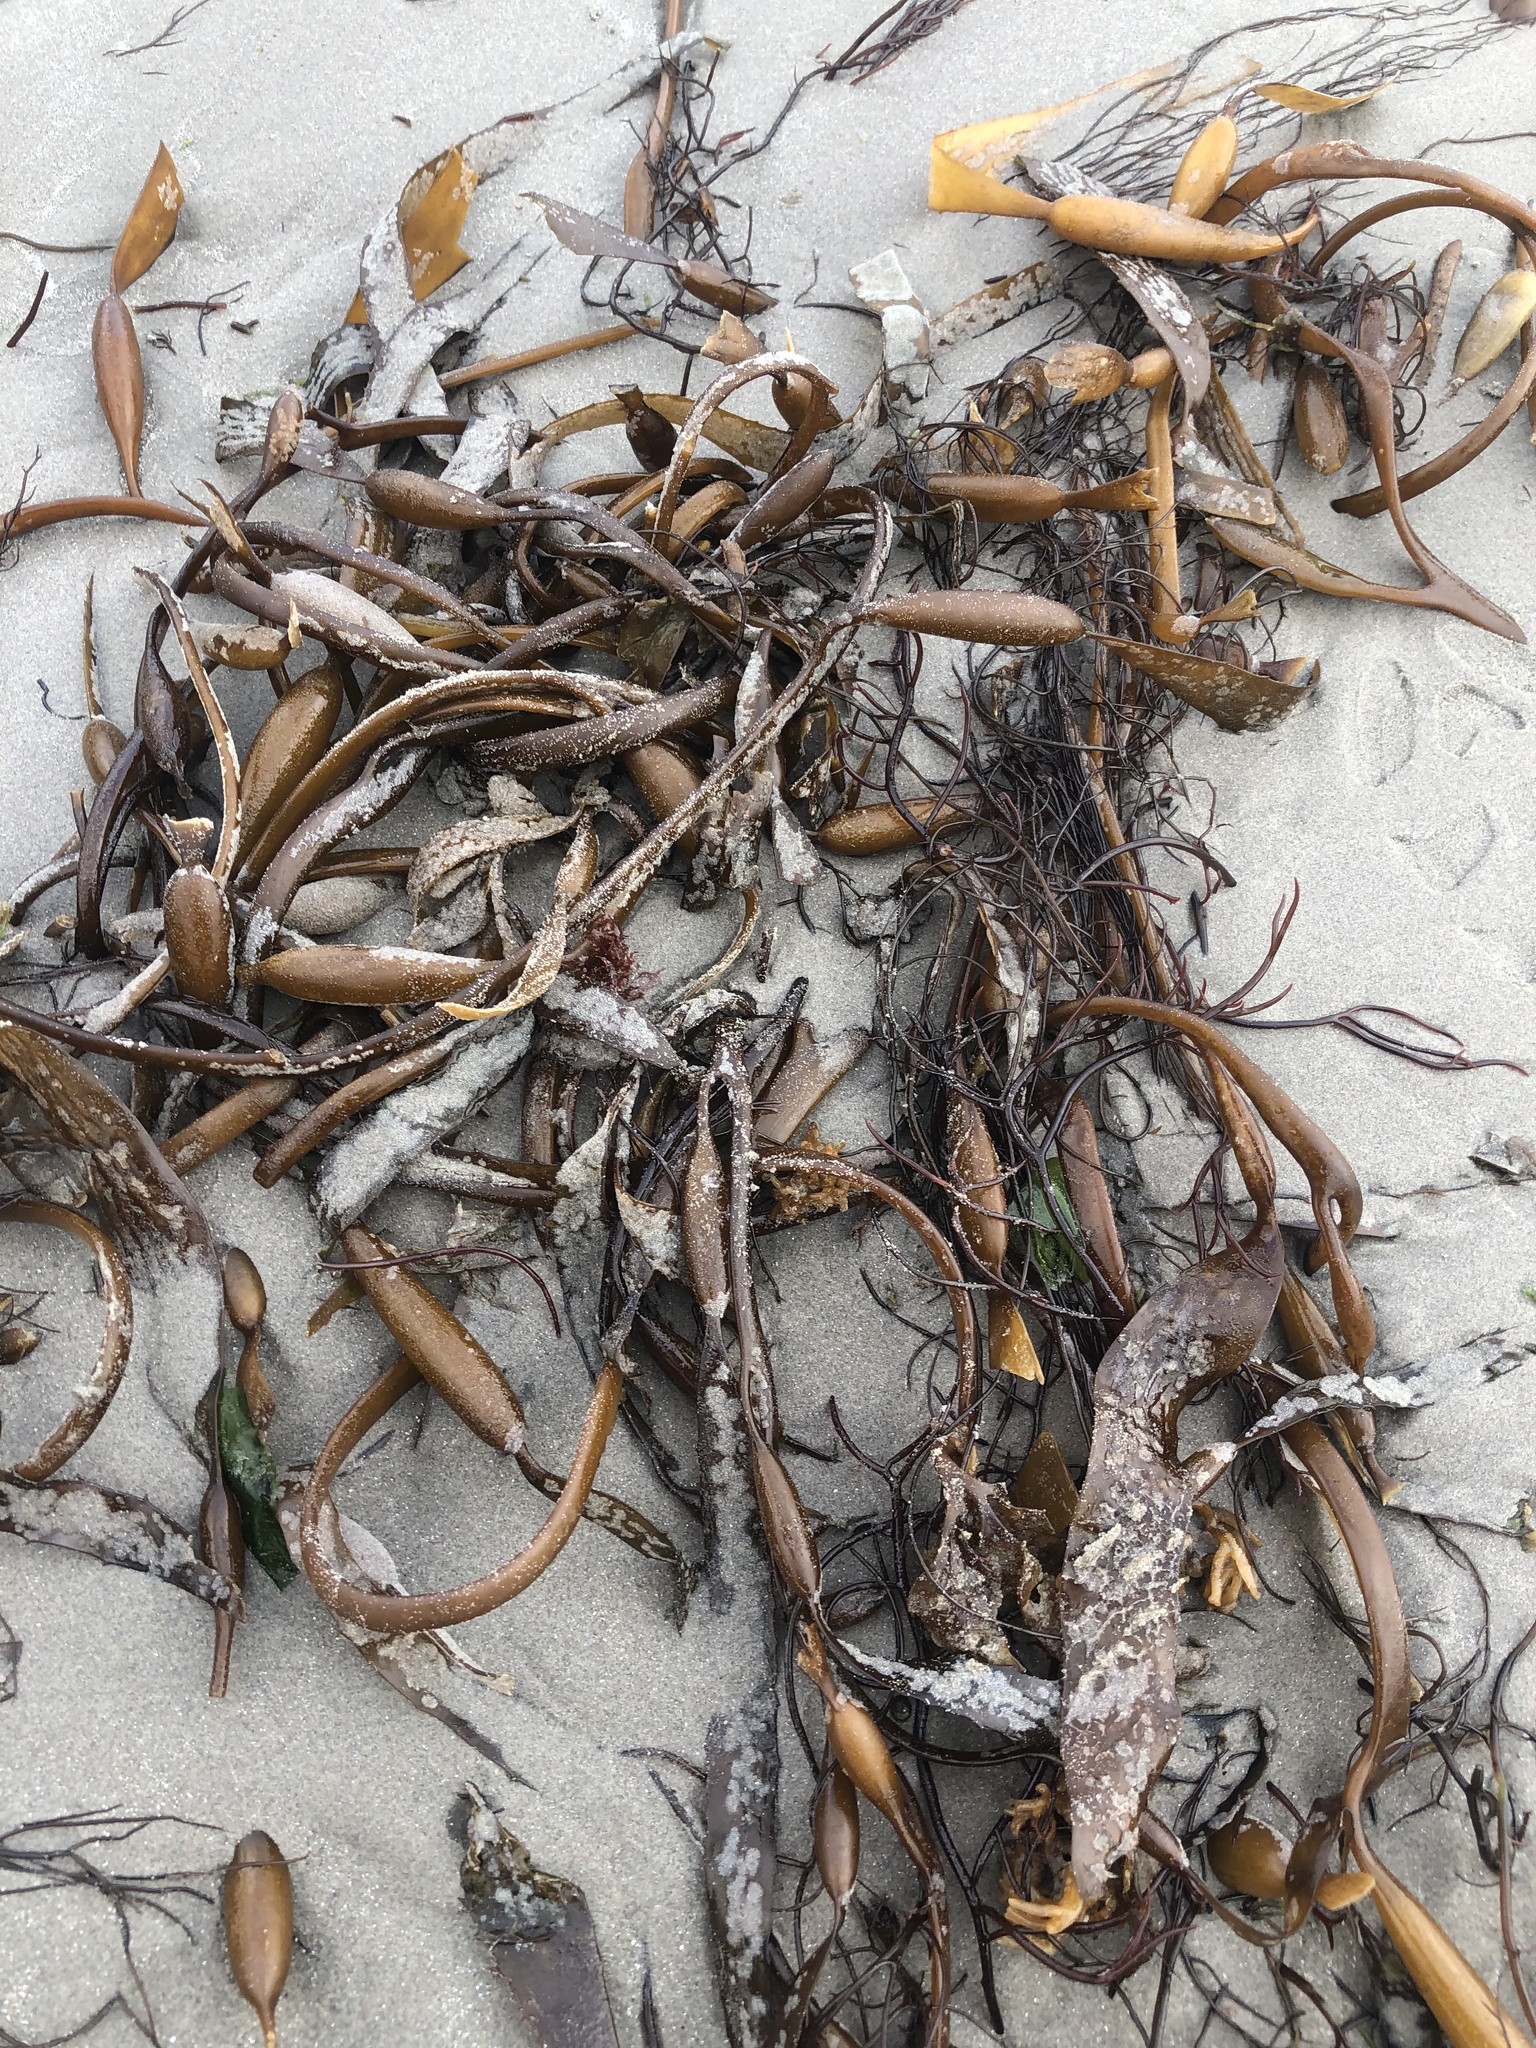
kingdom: Chromista
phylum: Ochrophyta
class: Phaeophyceae
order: Laminariales
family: Laminariaceae
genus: Macrocystis
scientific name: Macrocystis pyrifera
